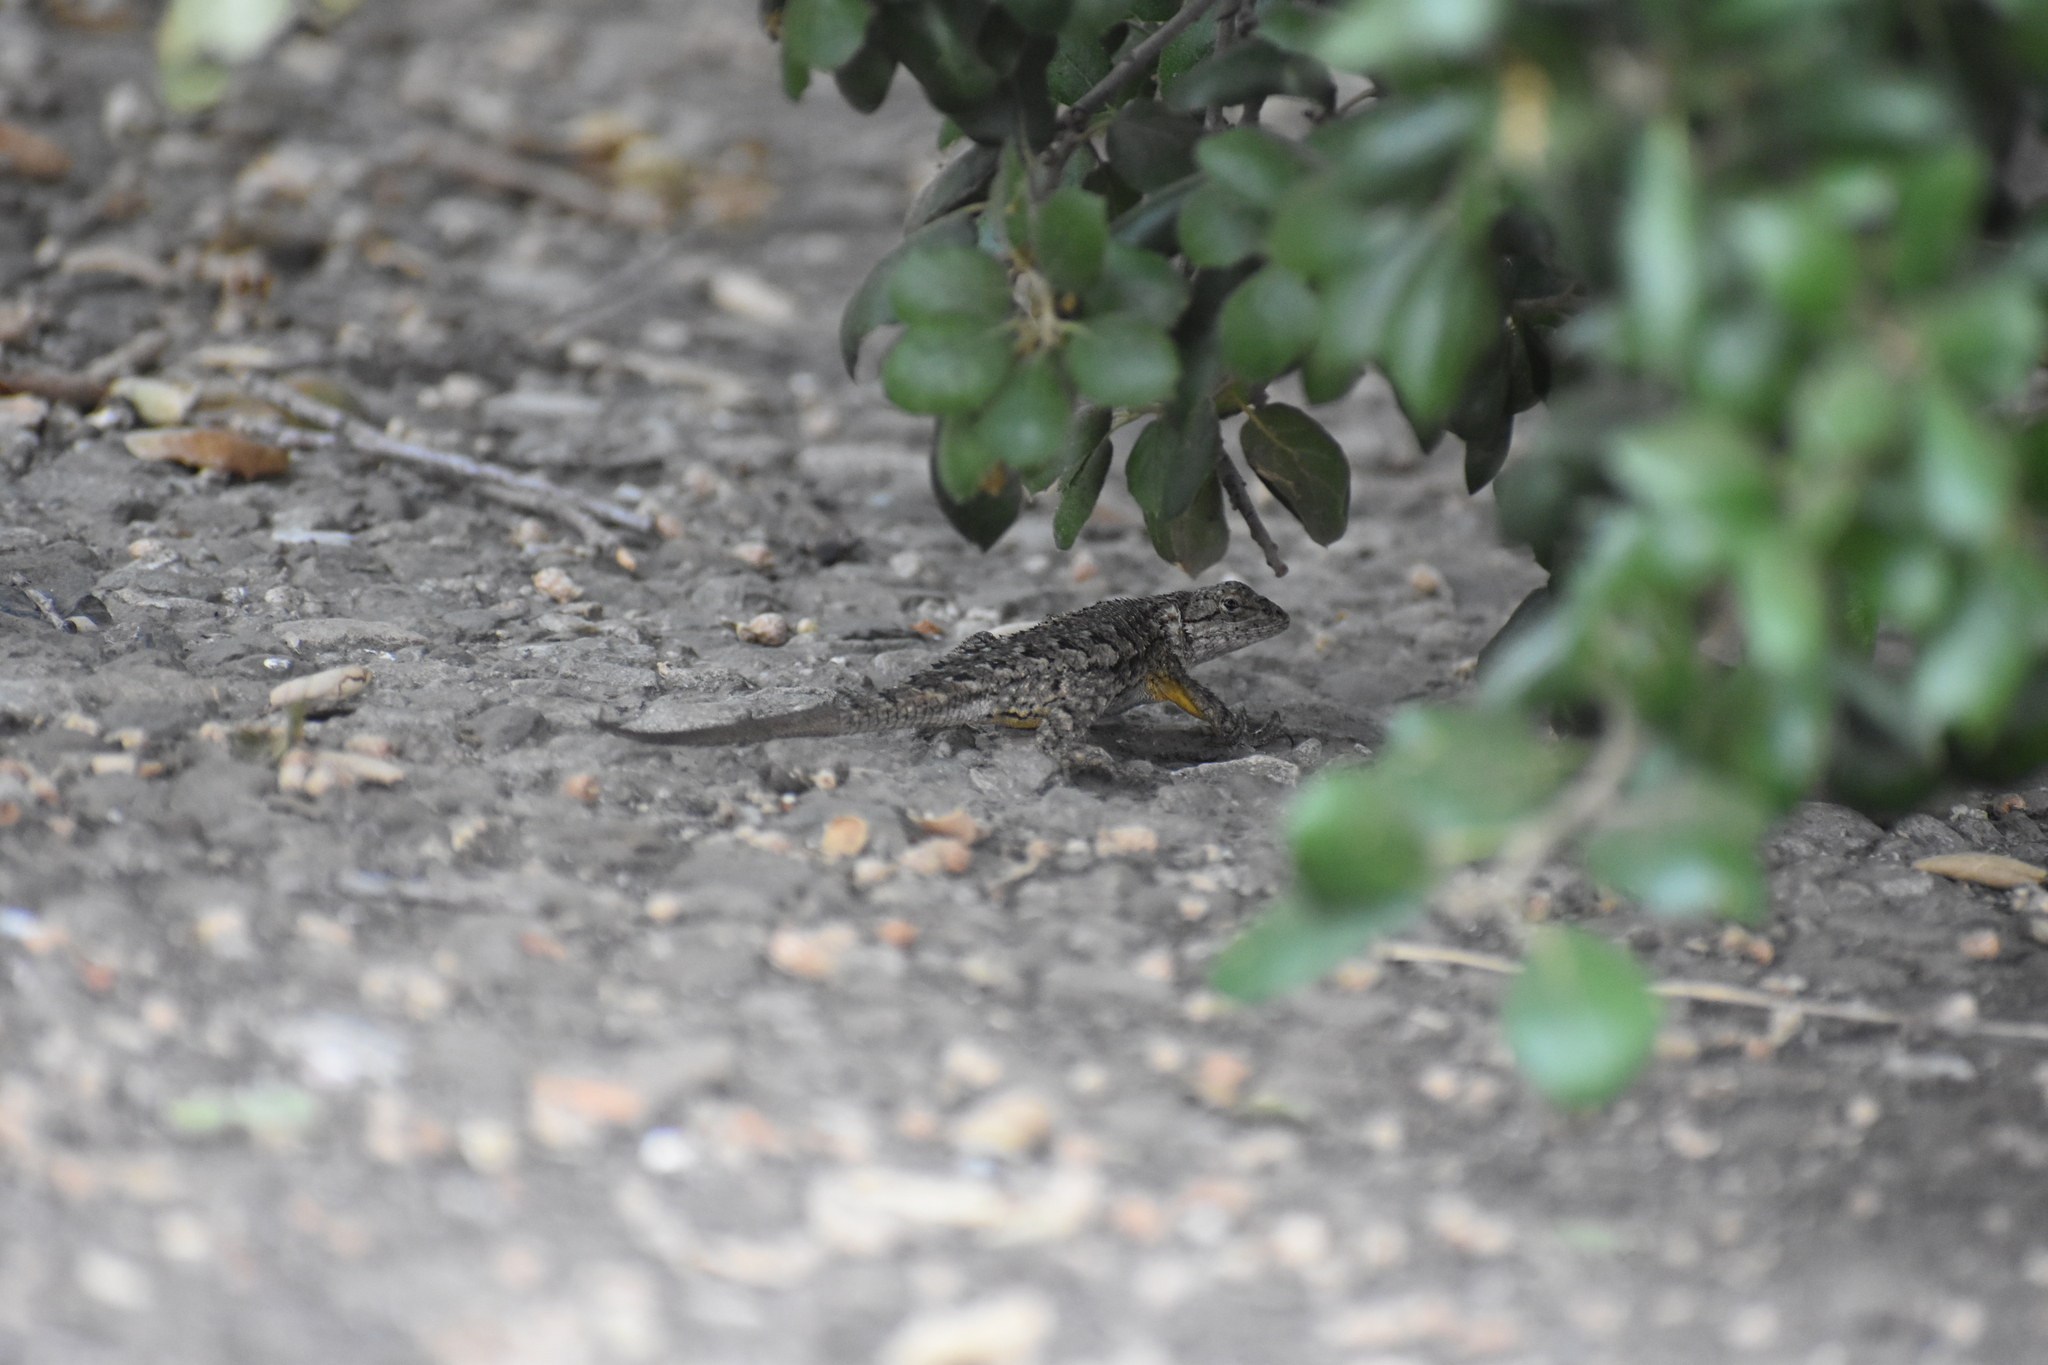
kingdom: Animalia
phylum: Chordata
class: Squamata
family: Phrynosomatidae
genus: Sceloporus
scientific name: Sceloporus occidentalis
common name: Western fence lizard
